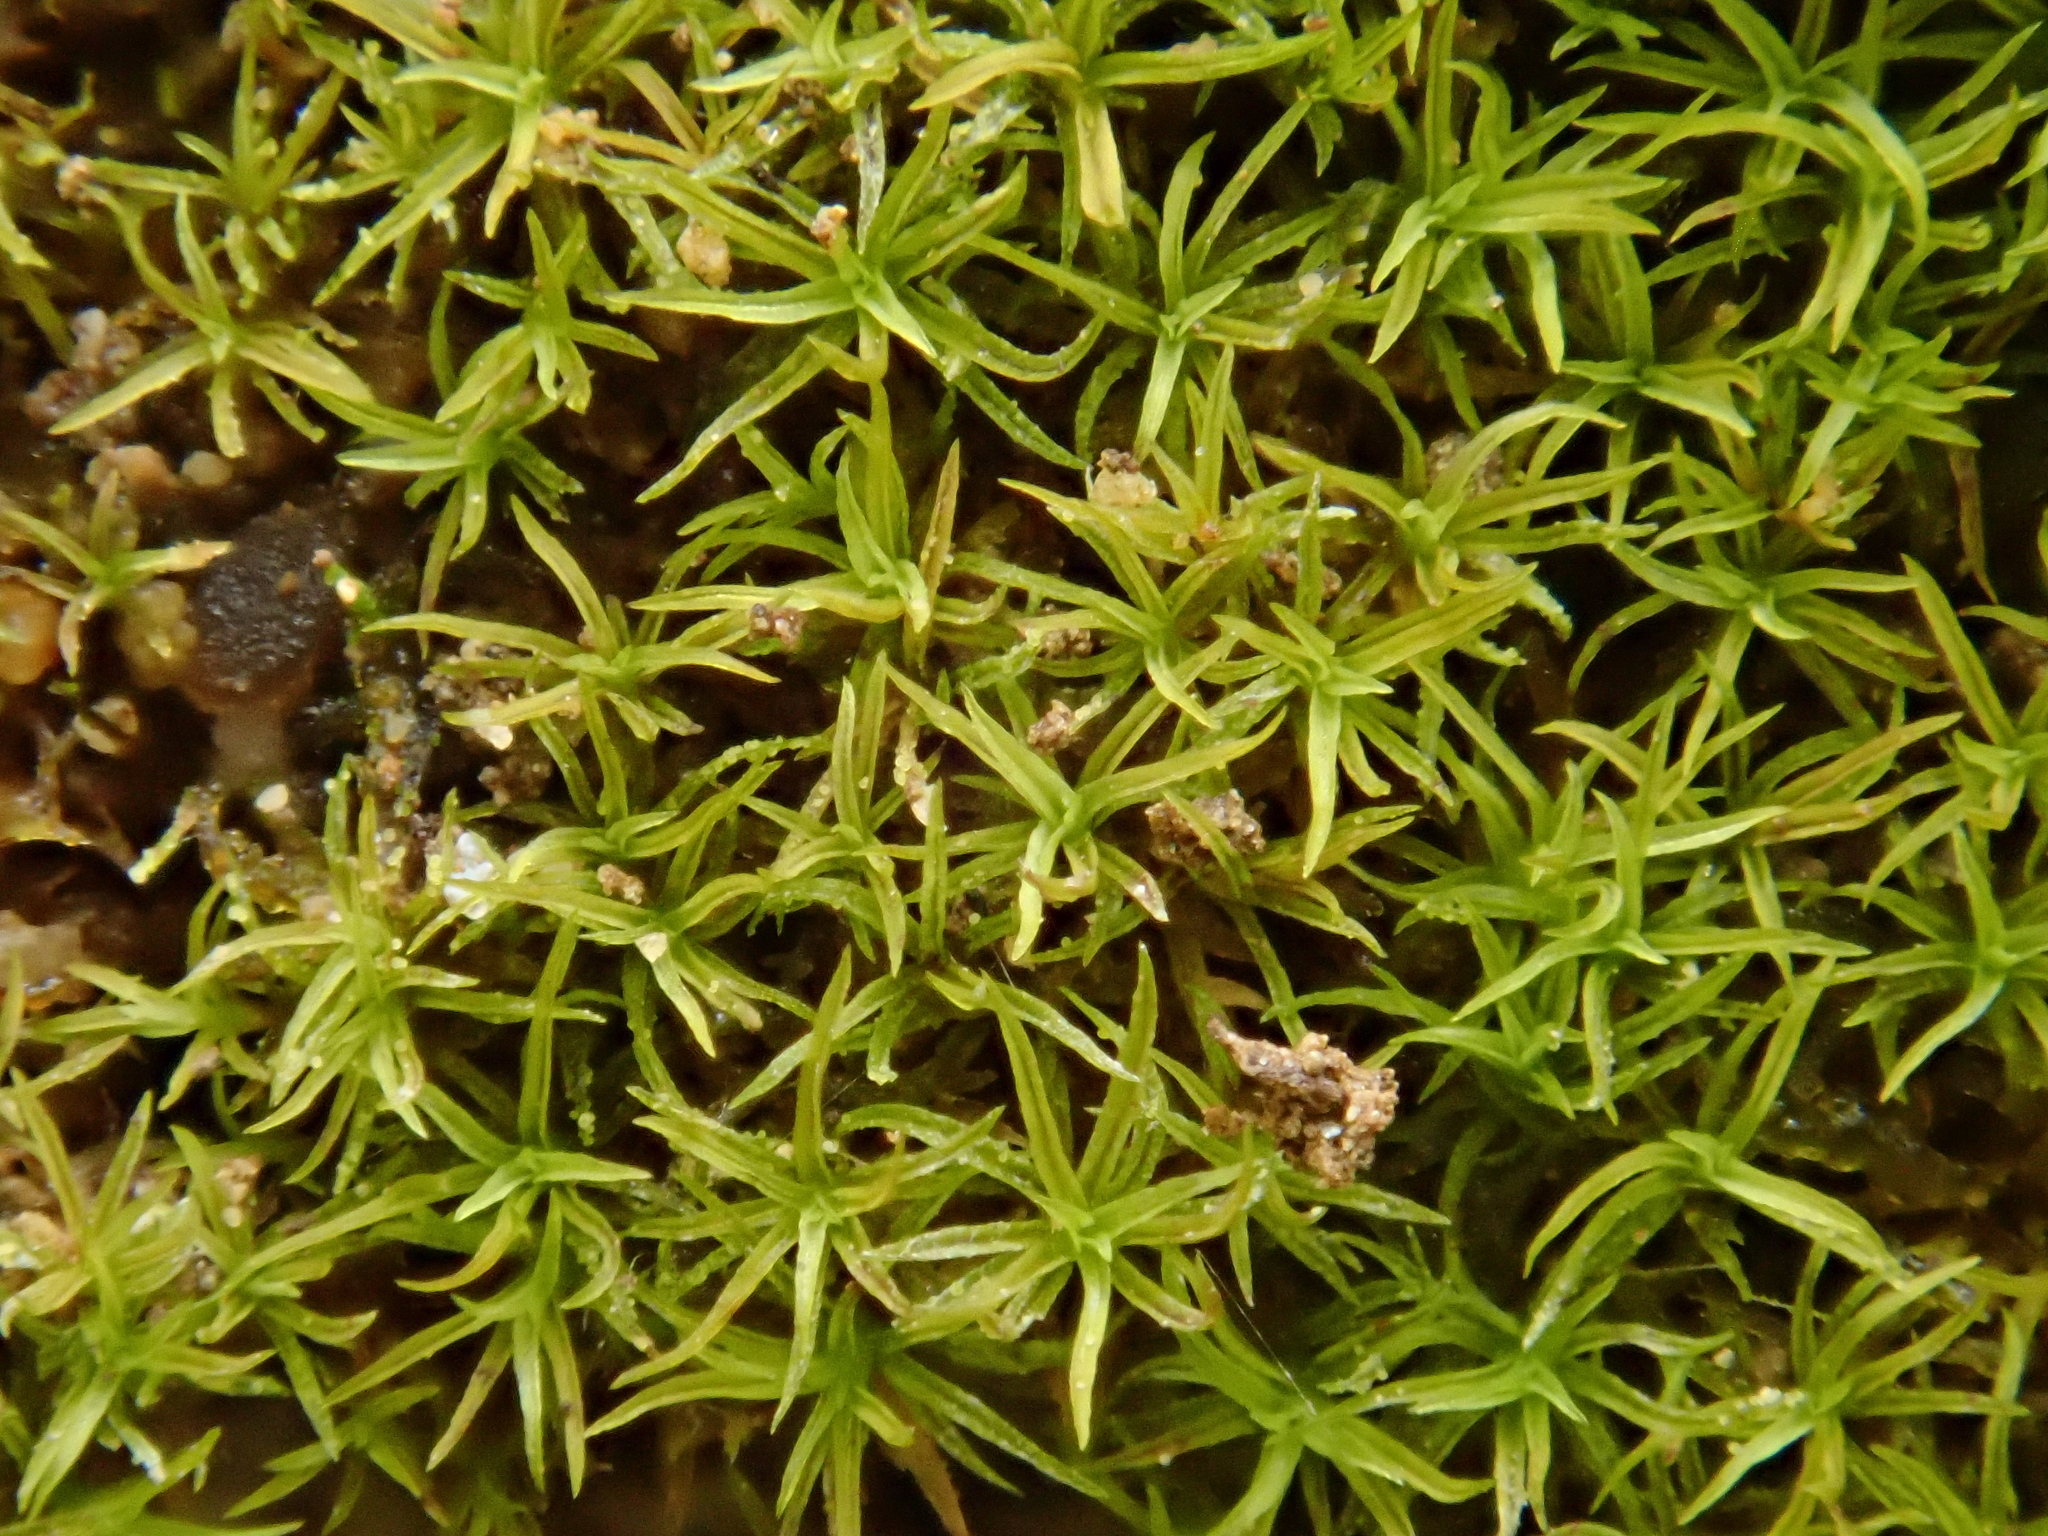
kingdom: Plantae
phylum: Bryophyta
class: Bryopsida
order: Pottiales
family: Pottiaceae
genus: Gymnostomum
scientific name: Gymnostomum aeruginosum
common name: Verdigris tufa-moss
